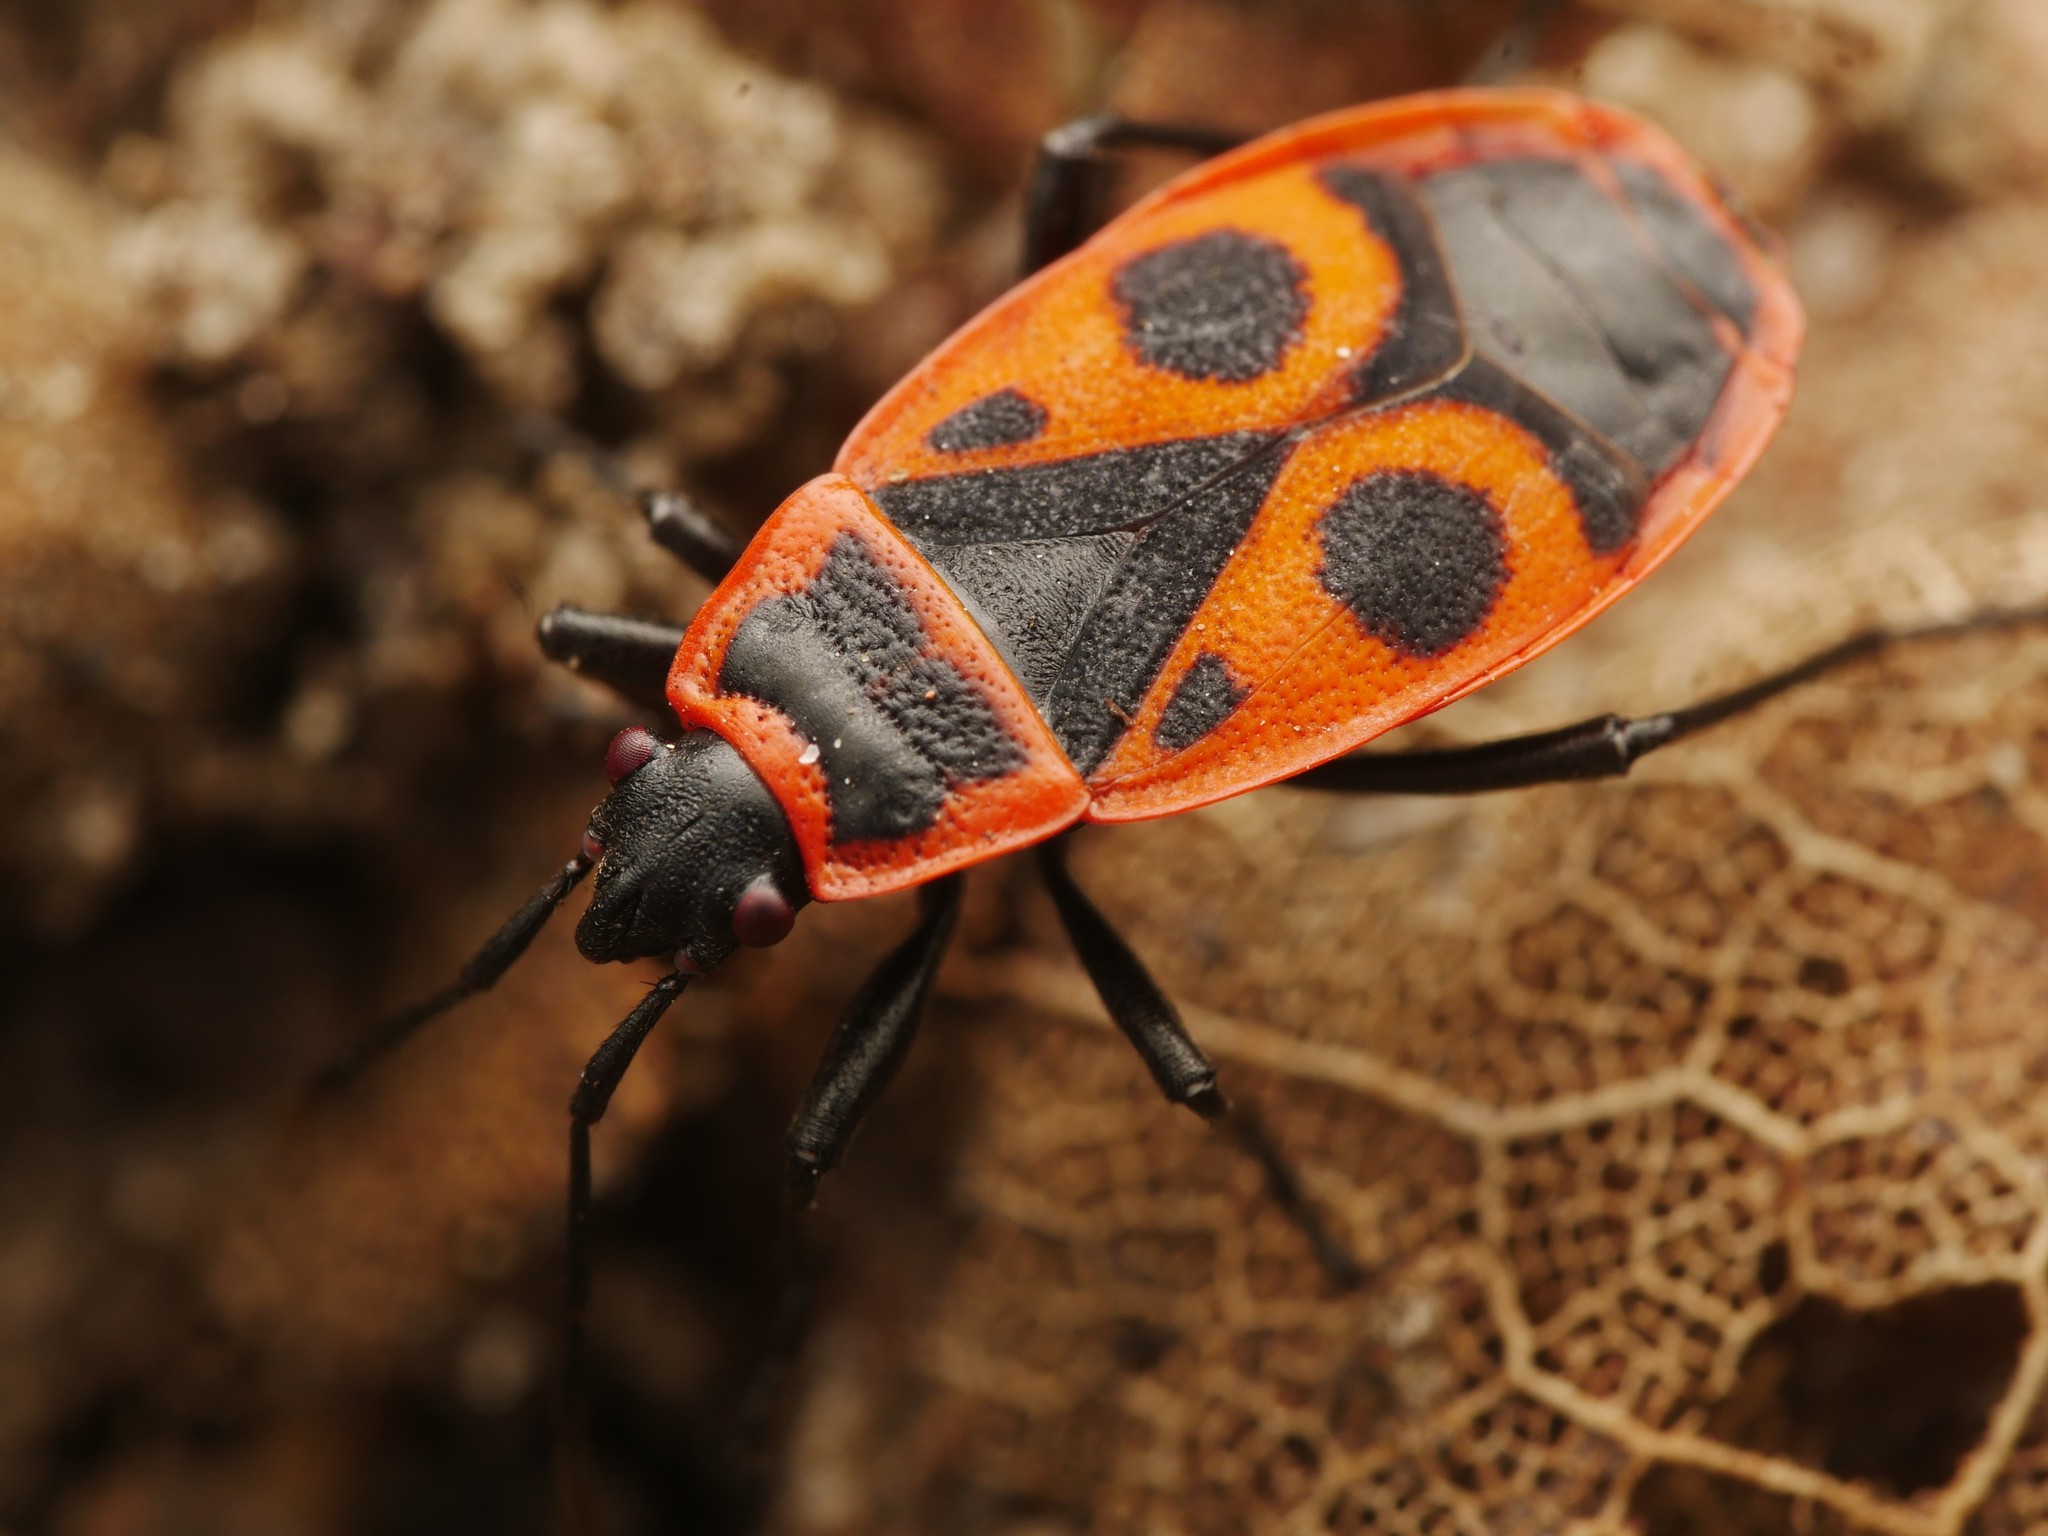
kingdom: Animalia
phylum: Arthropoda
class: Insecta
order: Hemiptera
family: Pyrrhocoridae
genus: Pyrrhocoris
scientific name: Pyrrhocoris apterus
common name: Firebug
